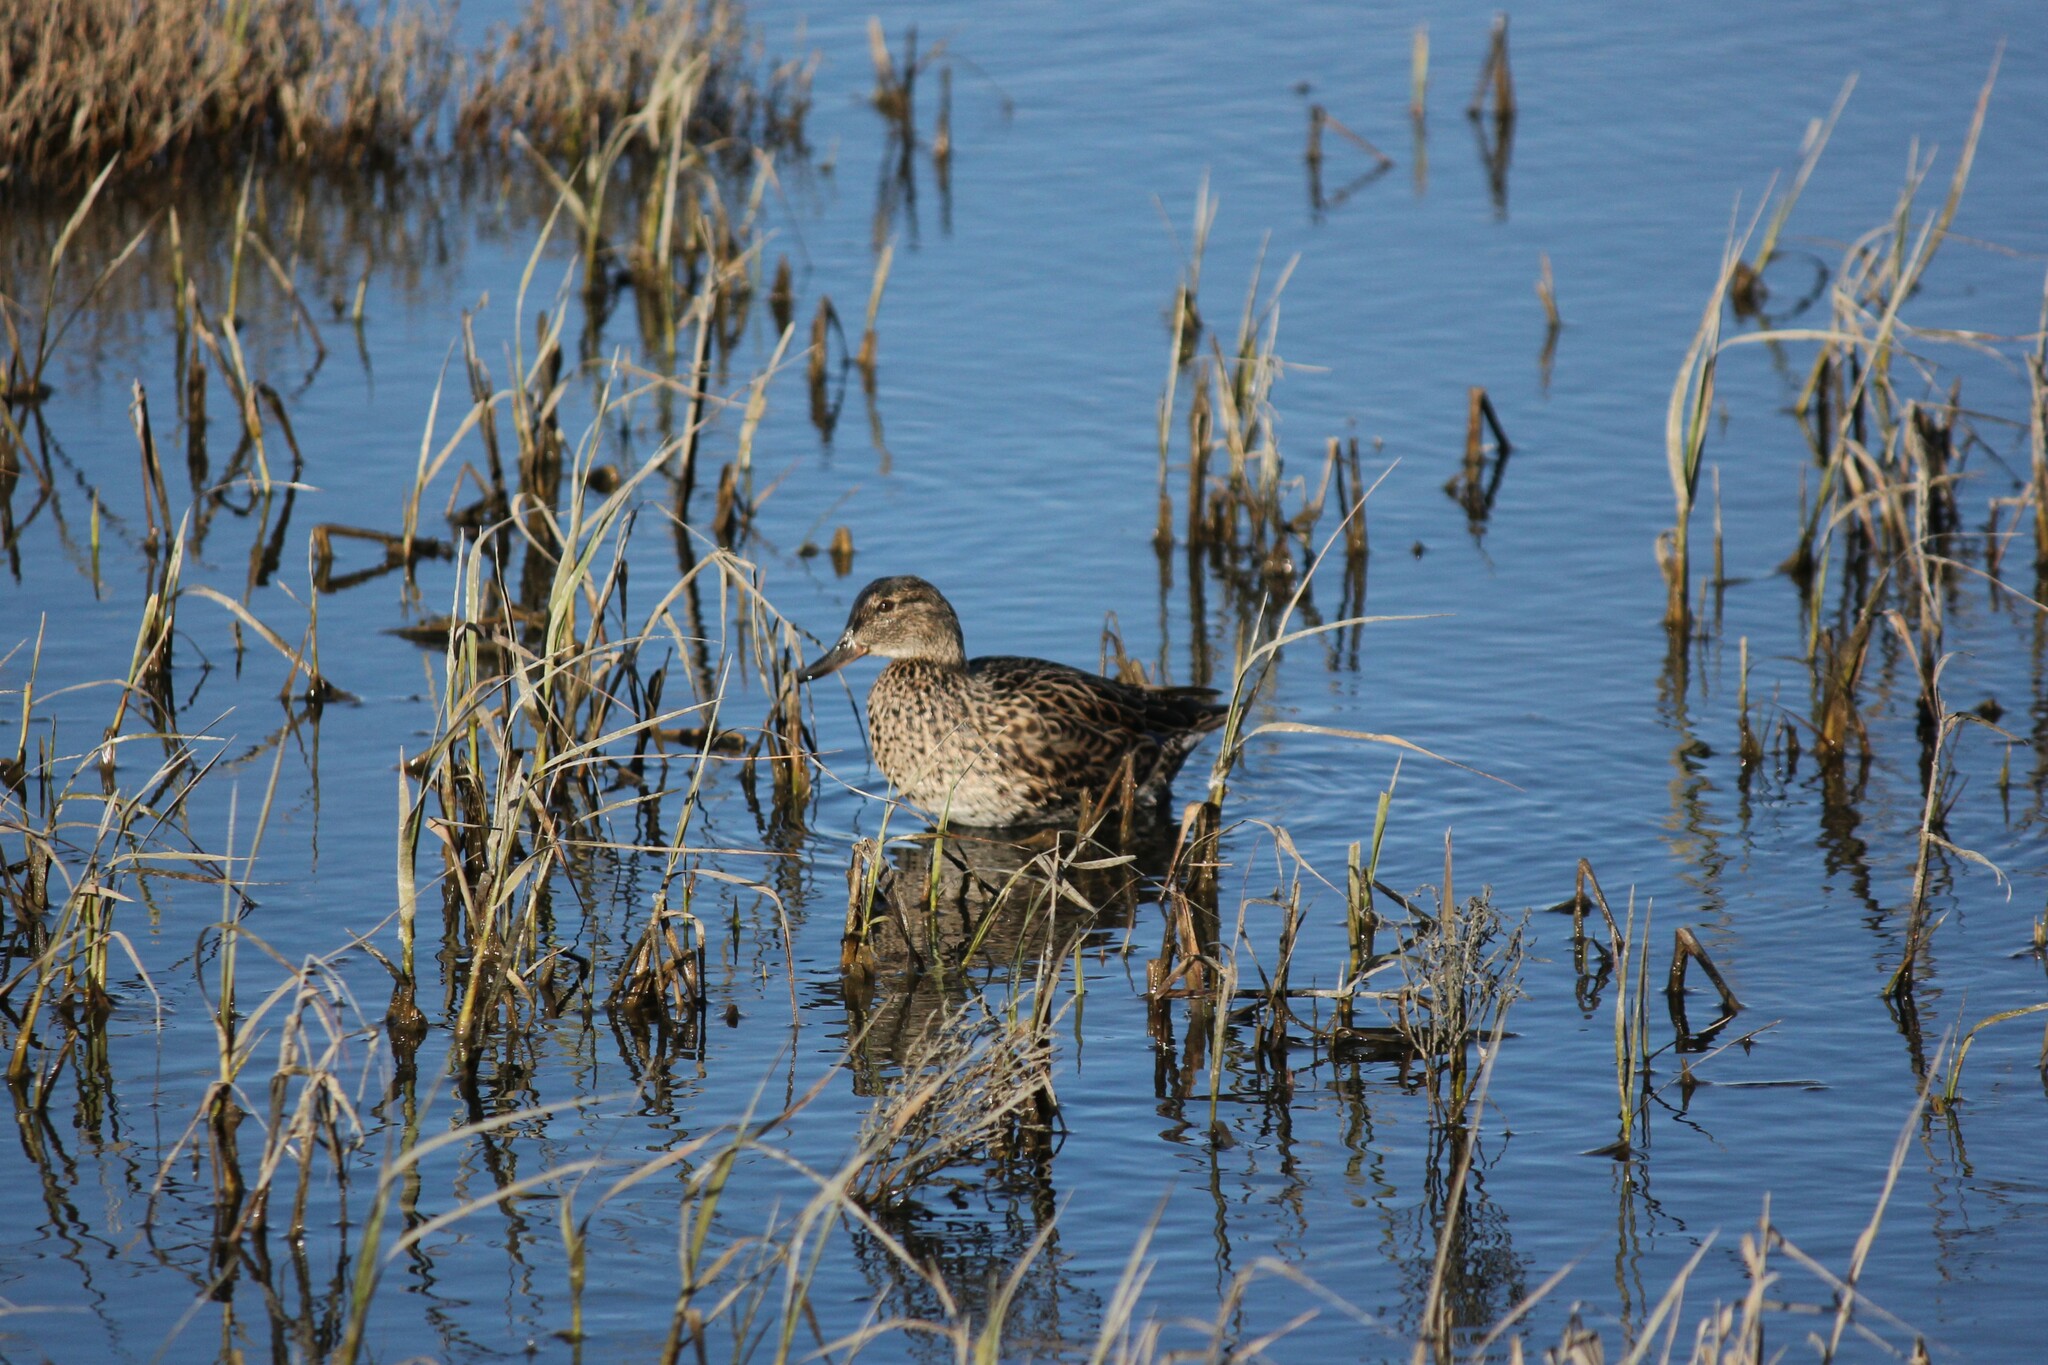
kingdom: Animalia
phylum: Chordata
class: Aves
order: Anseriformes
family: Anatidae
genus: Anas
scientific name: Anas crecca
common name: Eurasian teal
